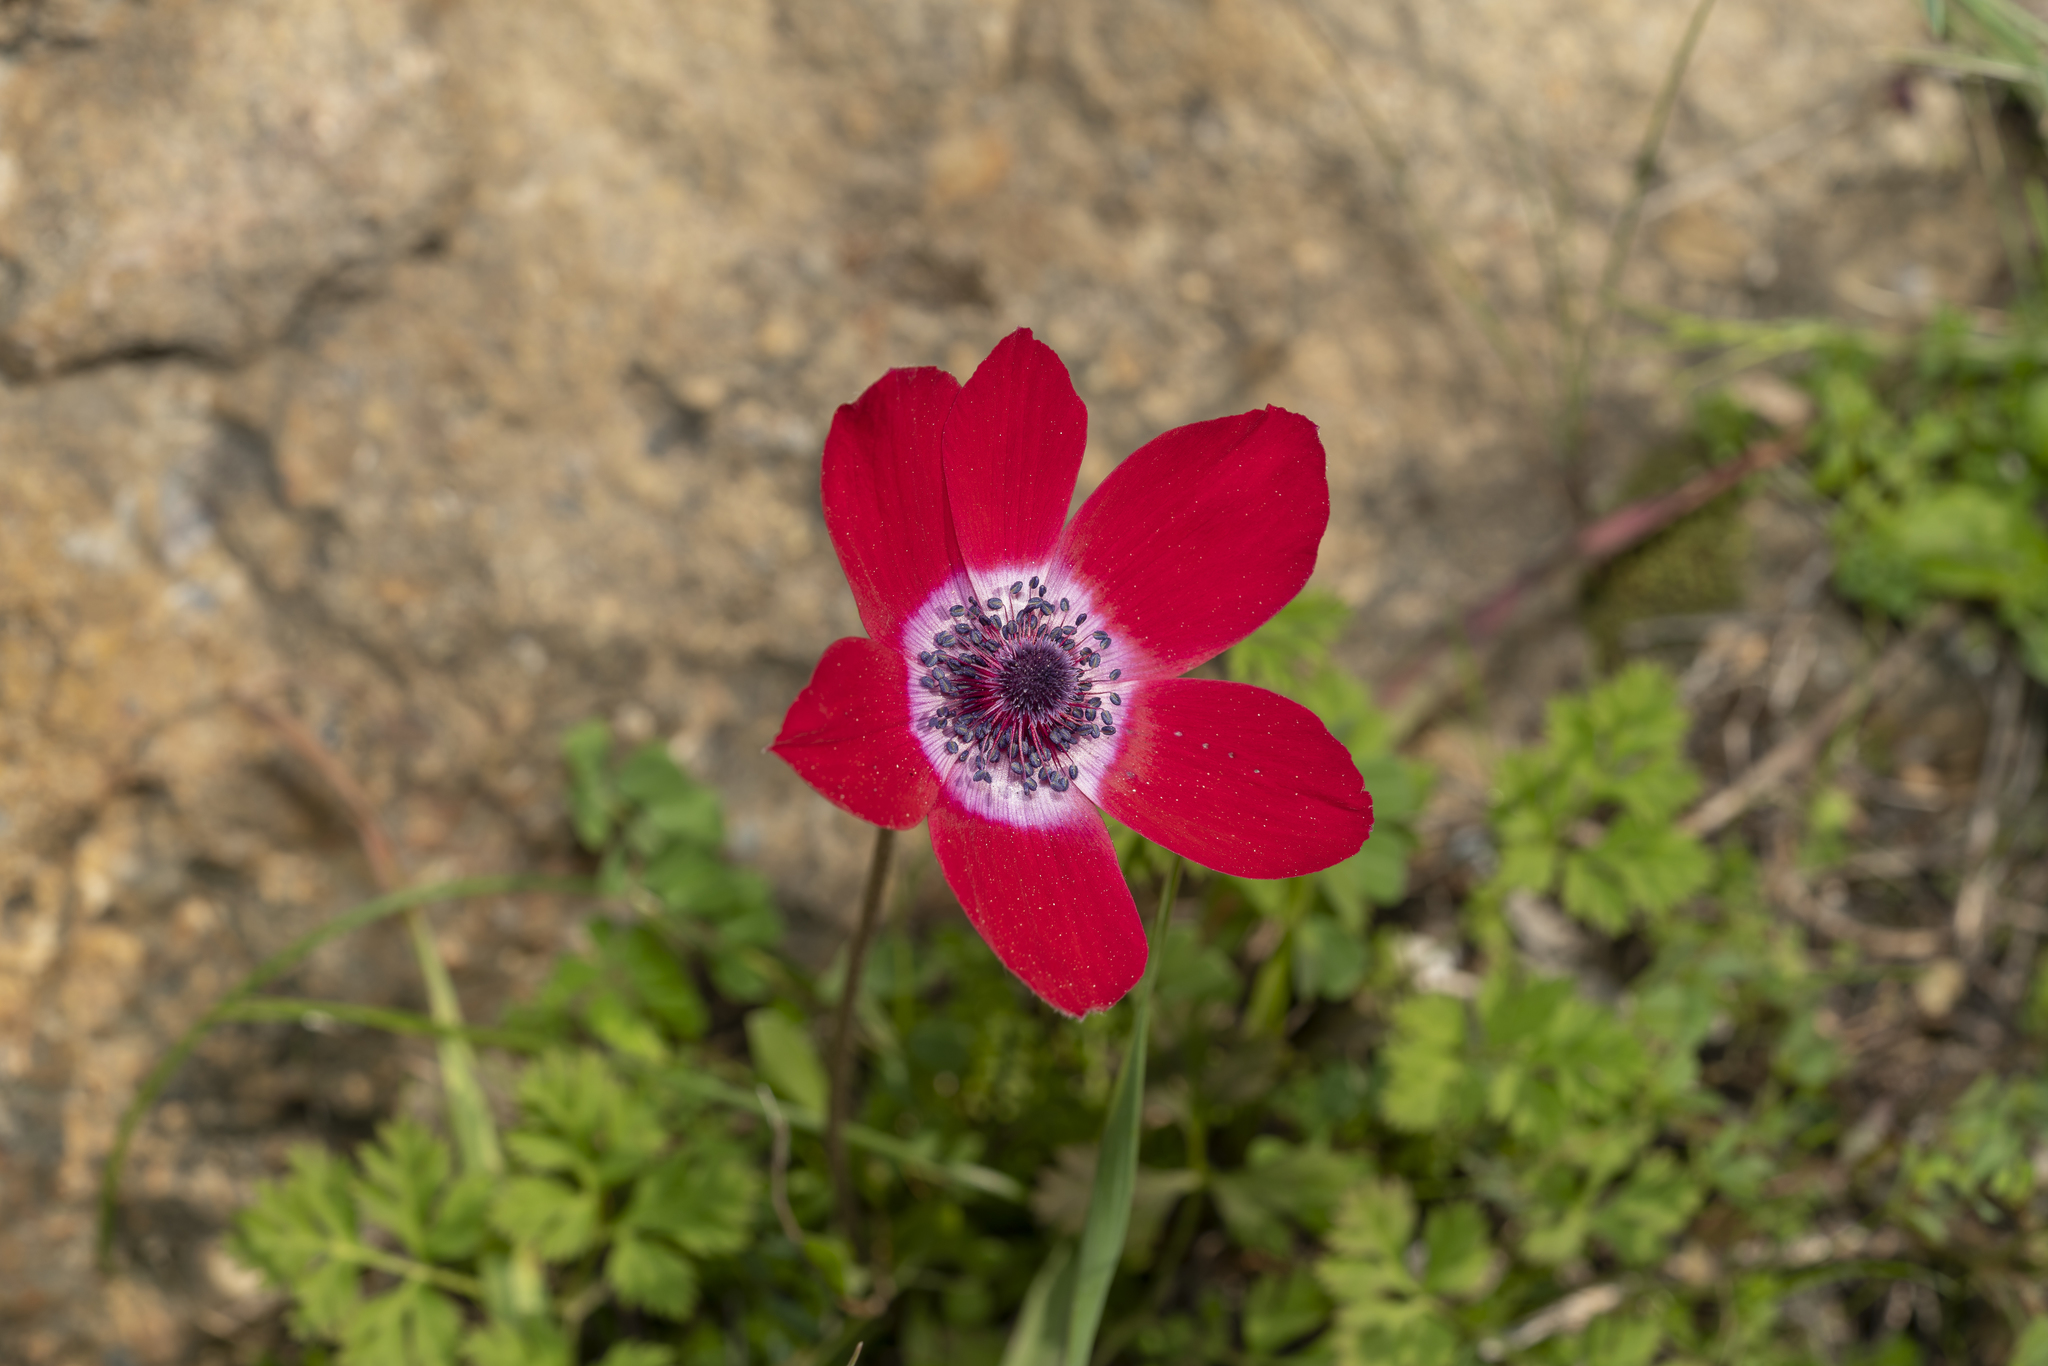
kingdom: Plantae
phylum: Tracheophyta
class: Magnoliopsida
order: Ranunculales
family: Ranunculaceae
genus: Anemone
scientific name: Anemone coronaria
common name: Poppy anemone
